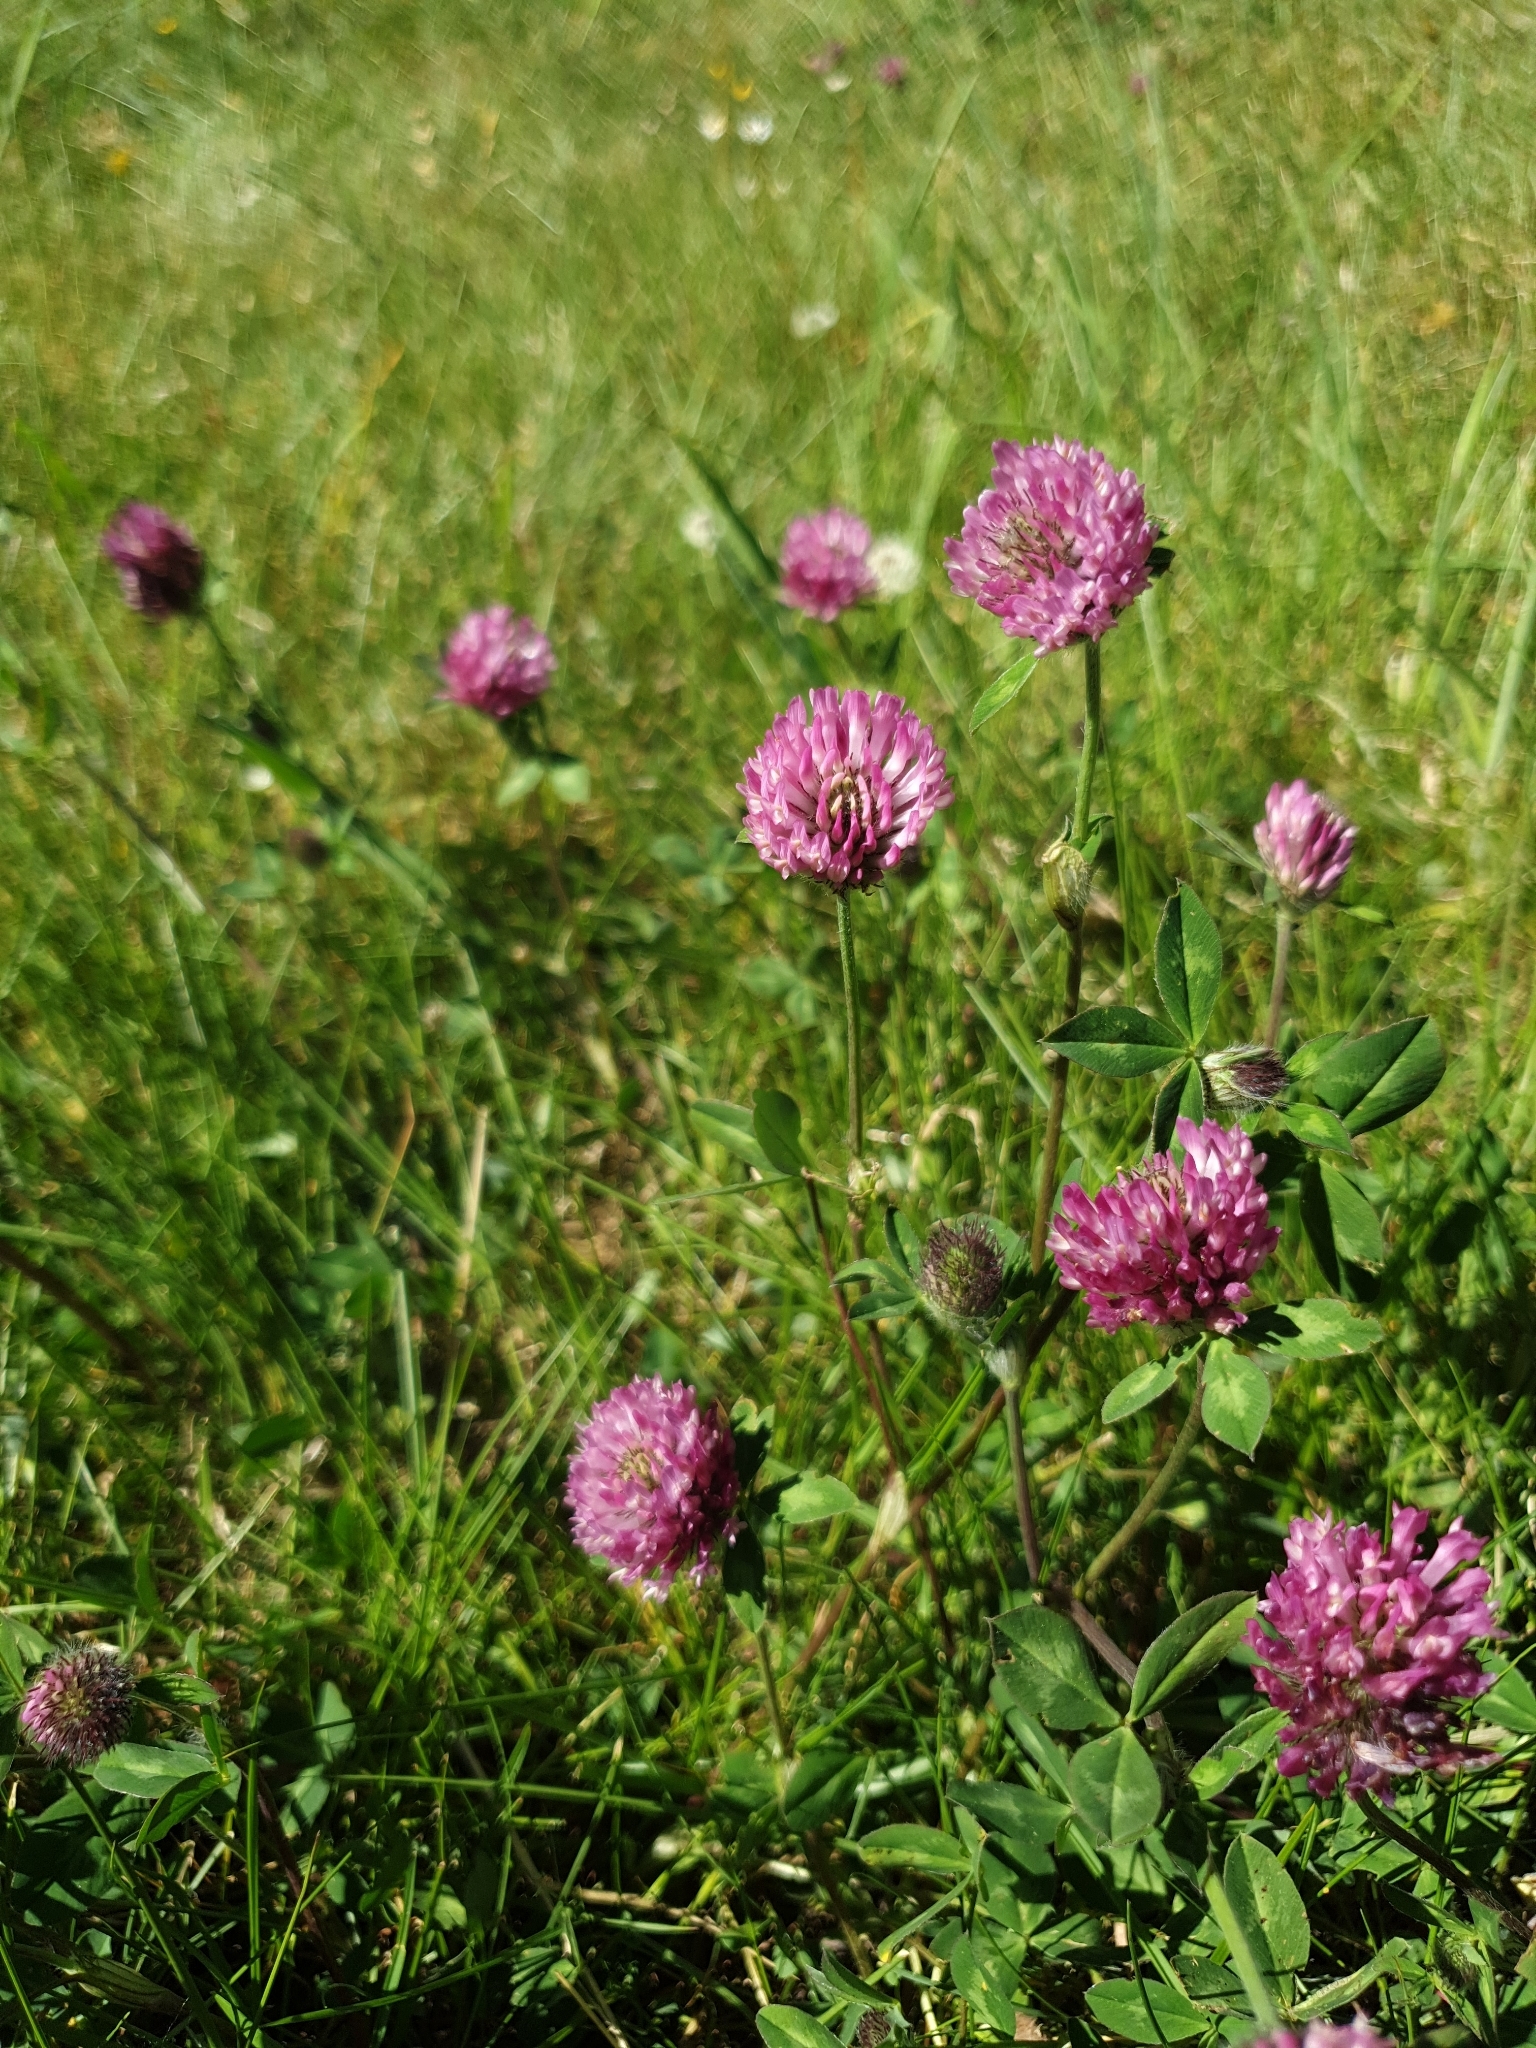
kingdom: Plantae
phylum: Tracheophyta
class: Magnoliopsida
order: Fabales
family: Fabaceae
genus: Trifolium
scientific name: Trifolium pratense
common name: Red clover
